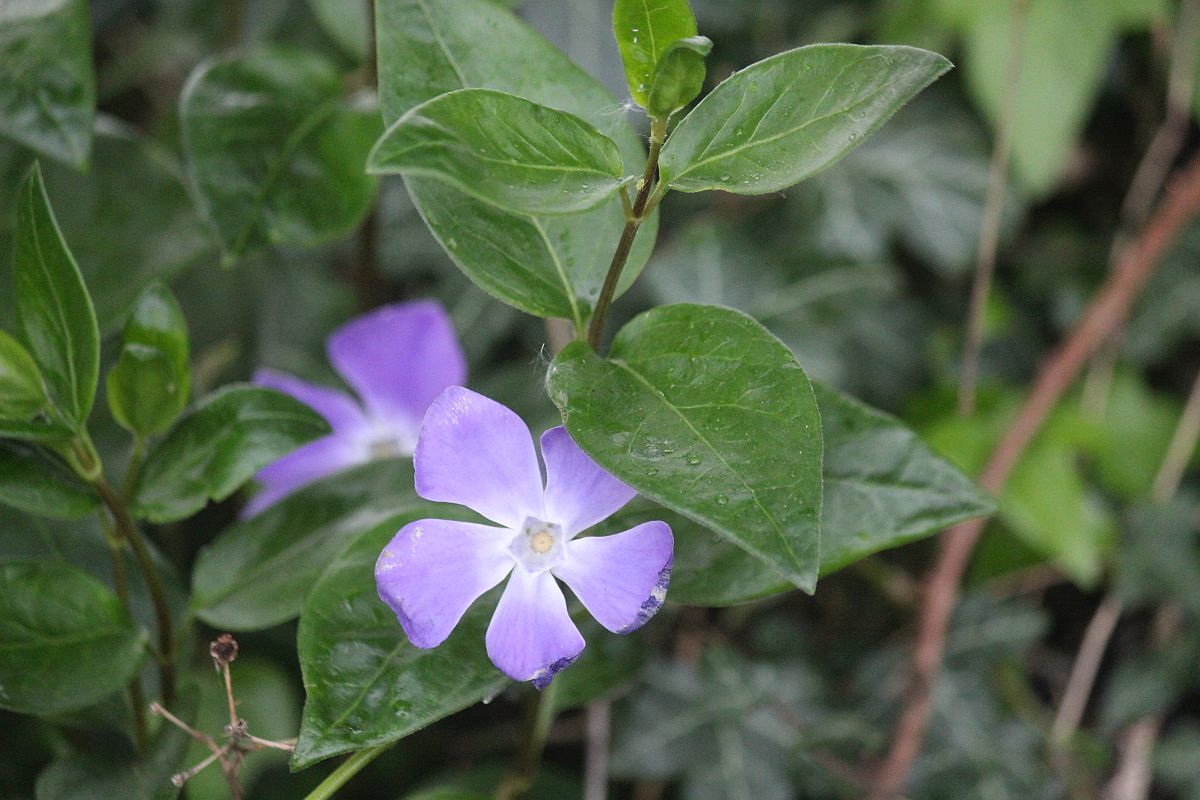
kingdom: Plantae
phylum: Tracheophyta
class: Magnoliopsida
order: Gentianales
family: Apocynaceae
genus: Vinca
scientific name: Vinca major
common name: Greater periwinkle
